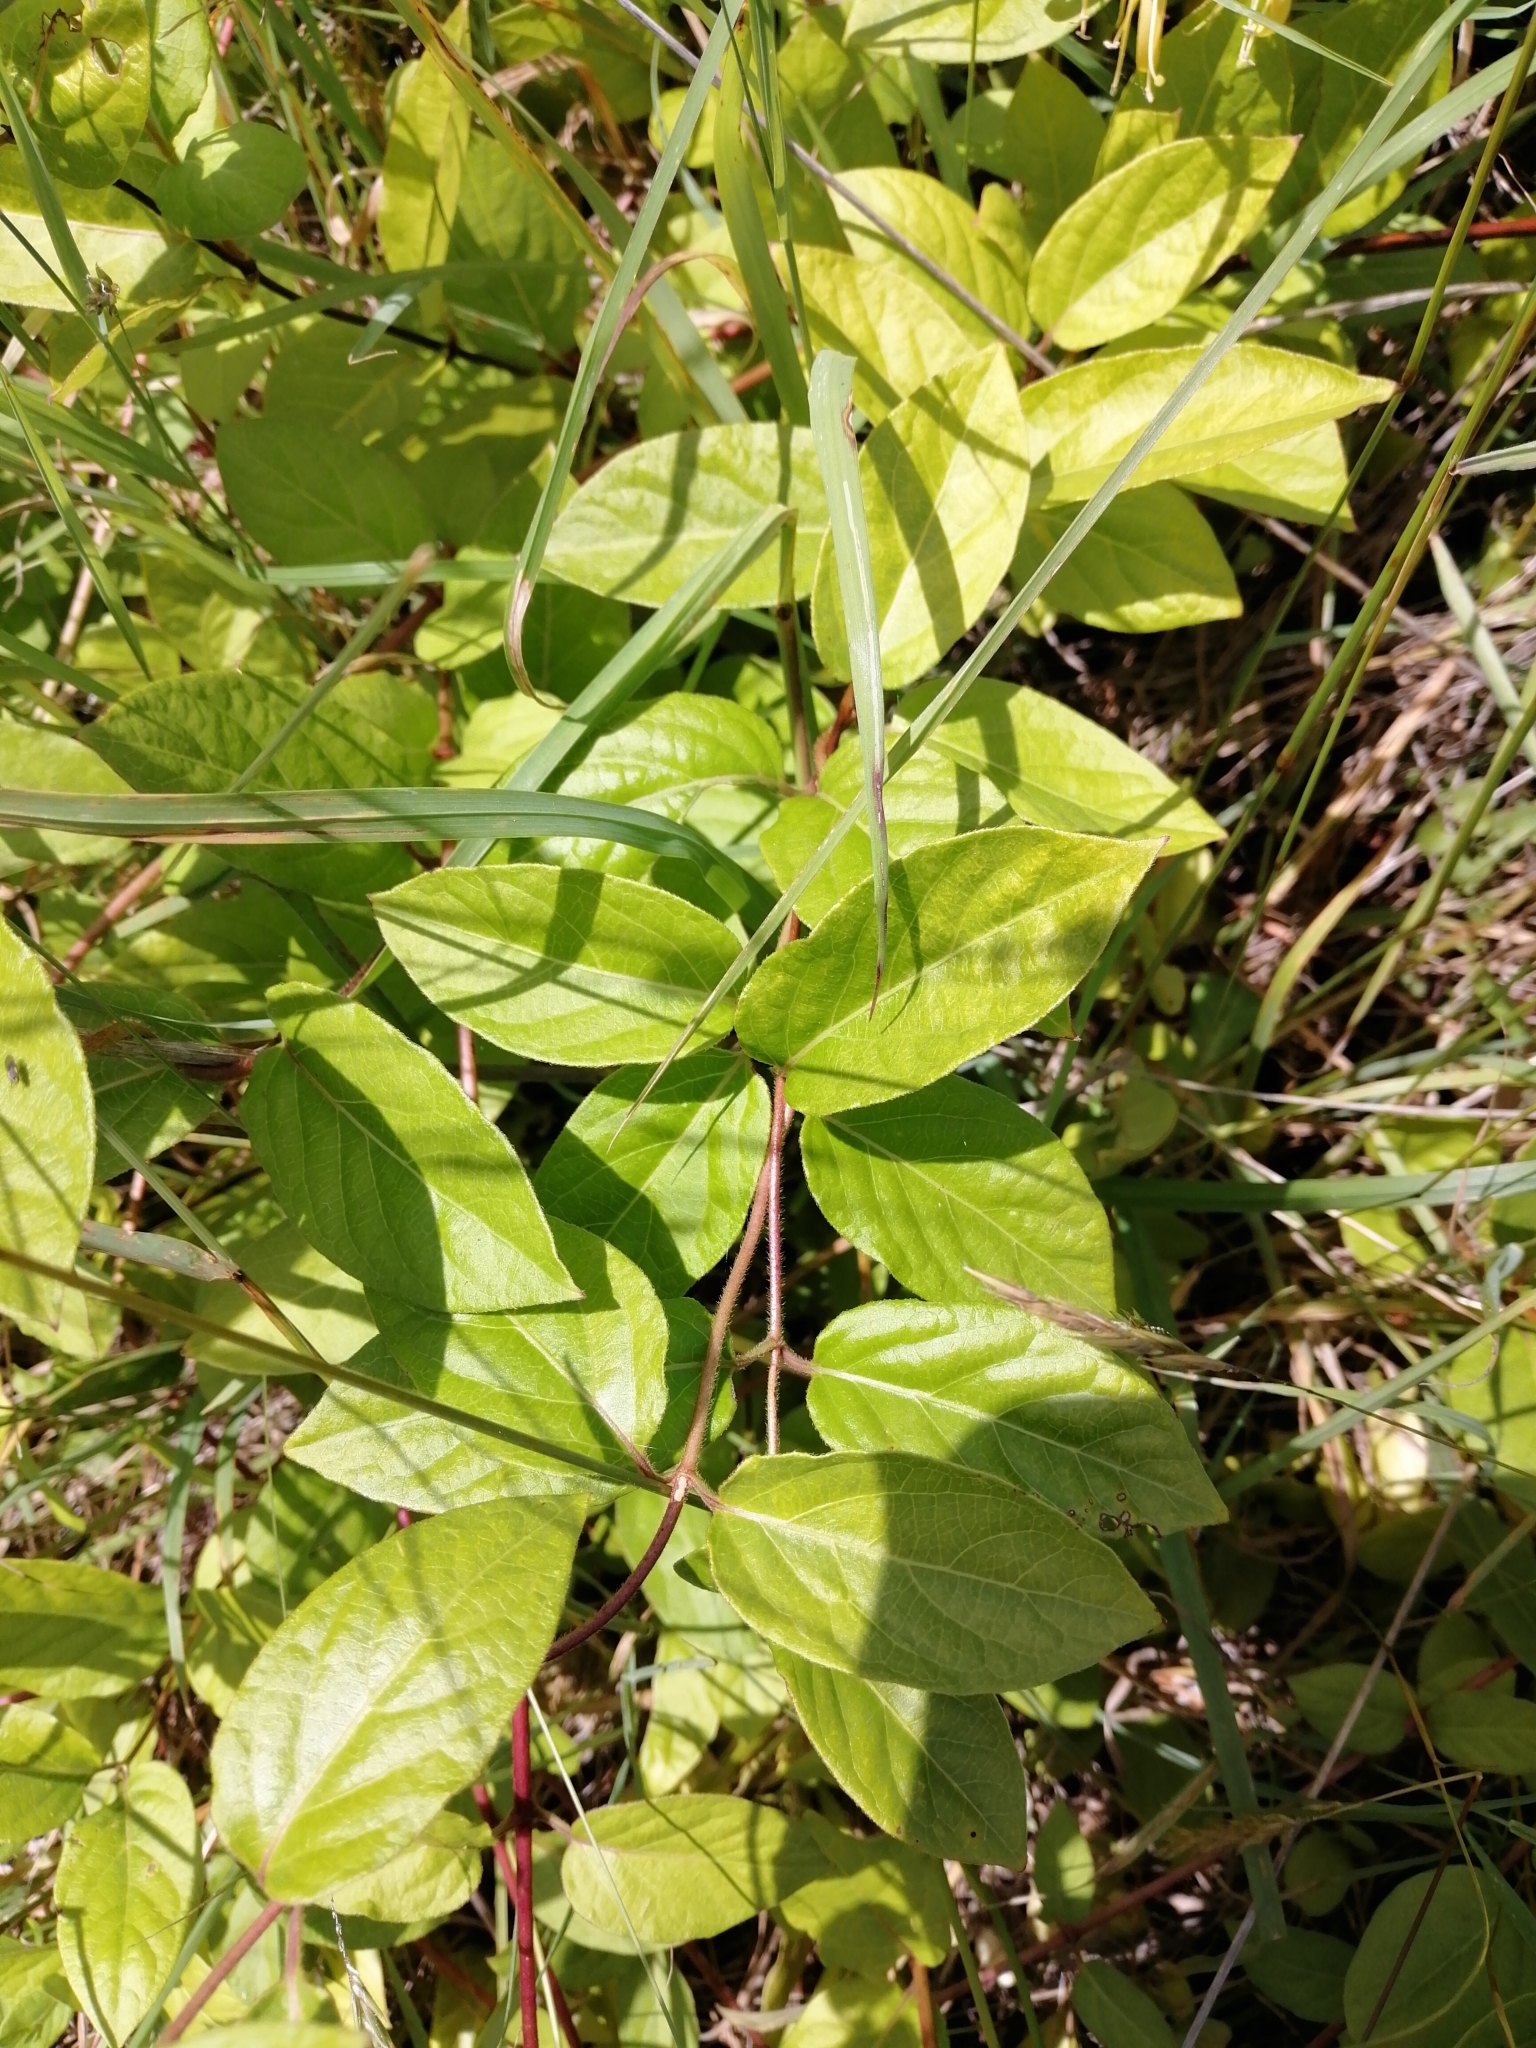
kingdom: Plantae
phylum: Tracheophyta
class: Magnoliopsida
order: Dipsacales
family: Caprifoliaceae
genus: Lonicera
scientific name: Lonicera japonica
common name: Japanese honeysuckle
